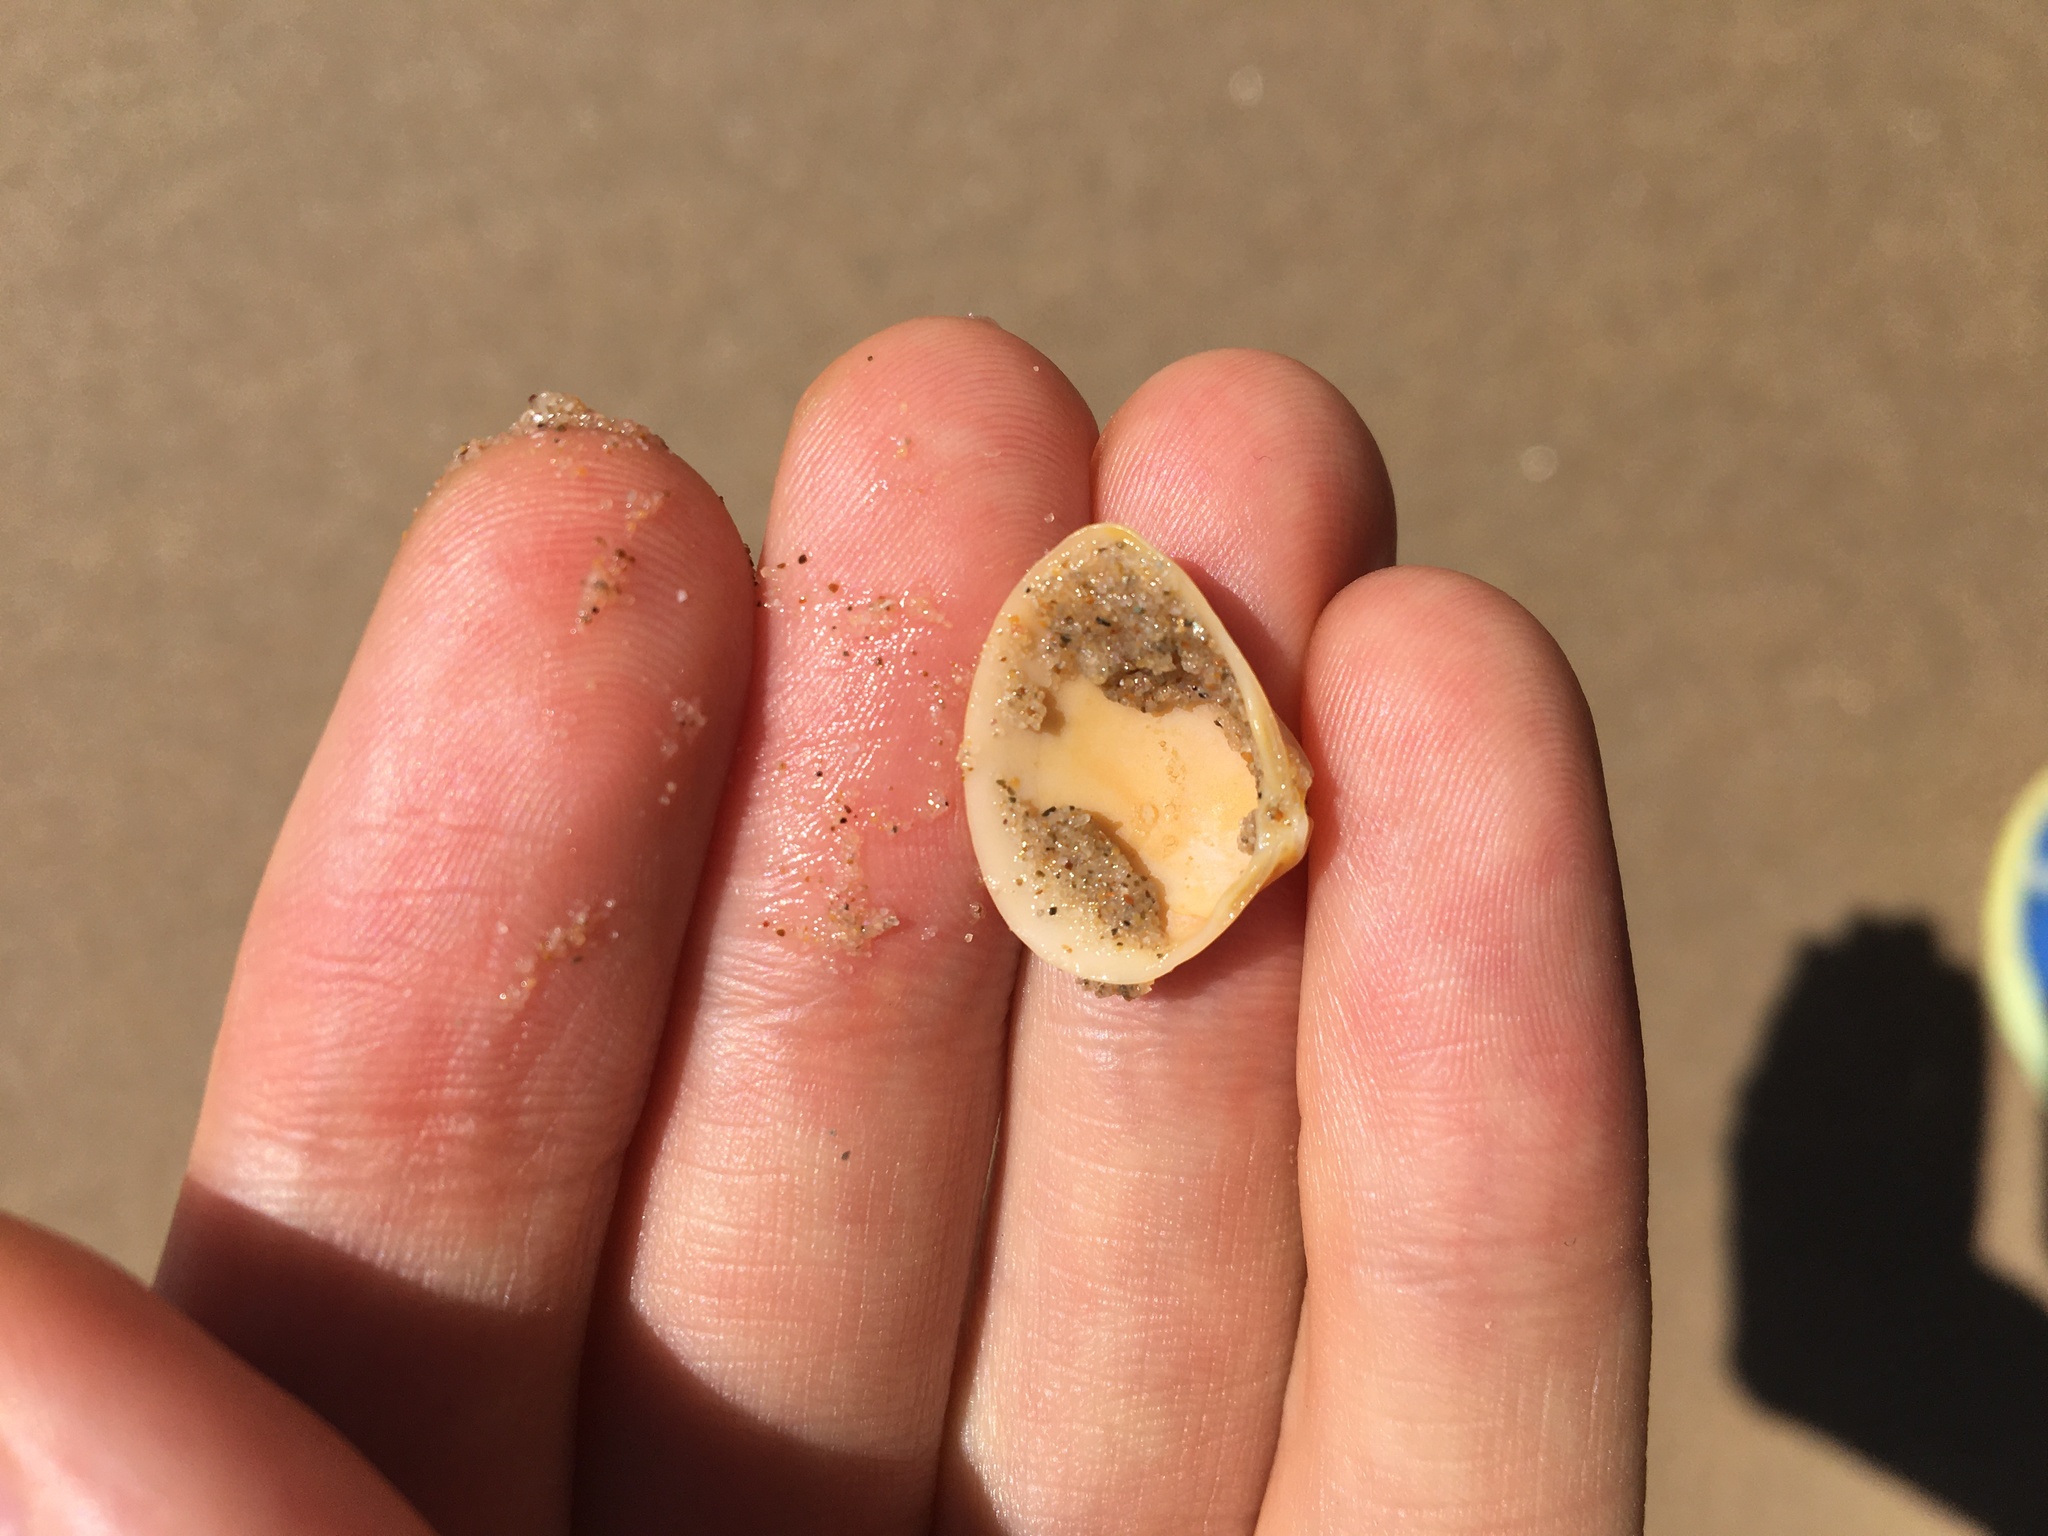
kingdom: Animalia
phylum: Mollusca
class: Bivalvia
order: Venerida
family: Mactridae
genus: Spisula
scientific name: Spisula trigonella
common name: Trigonal mactra
